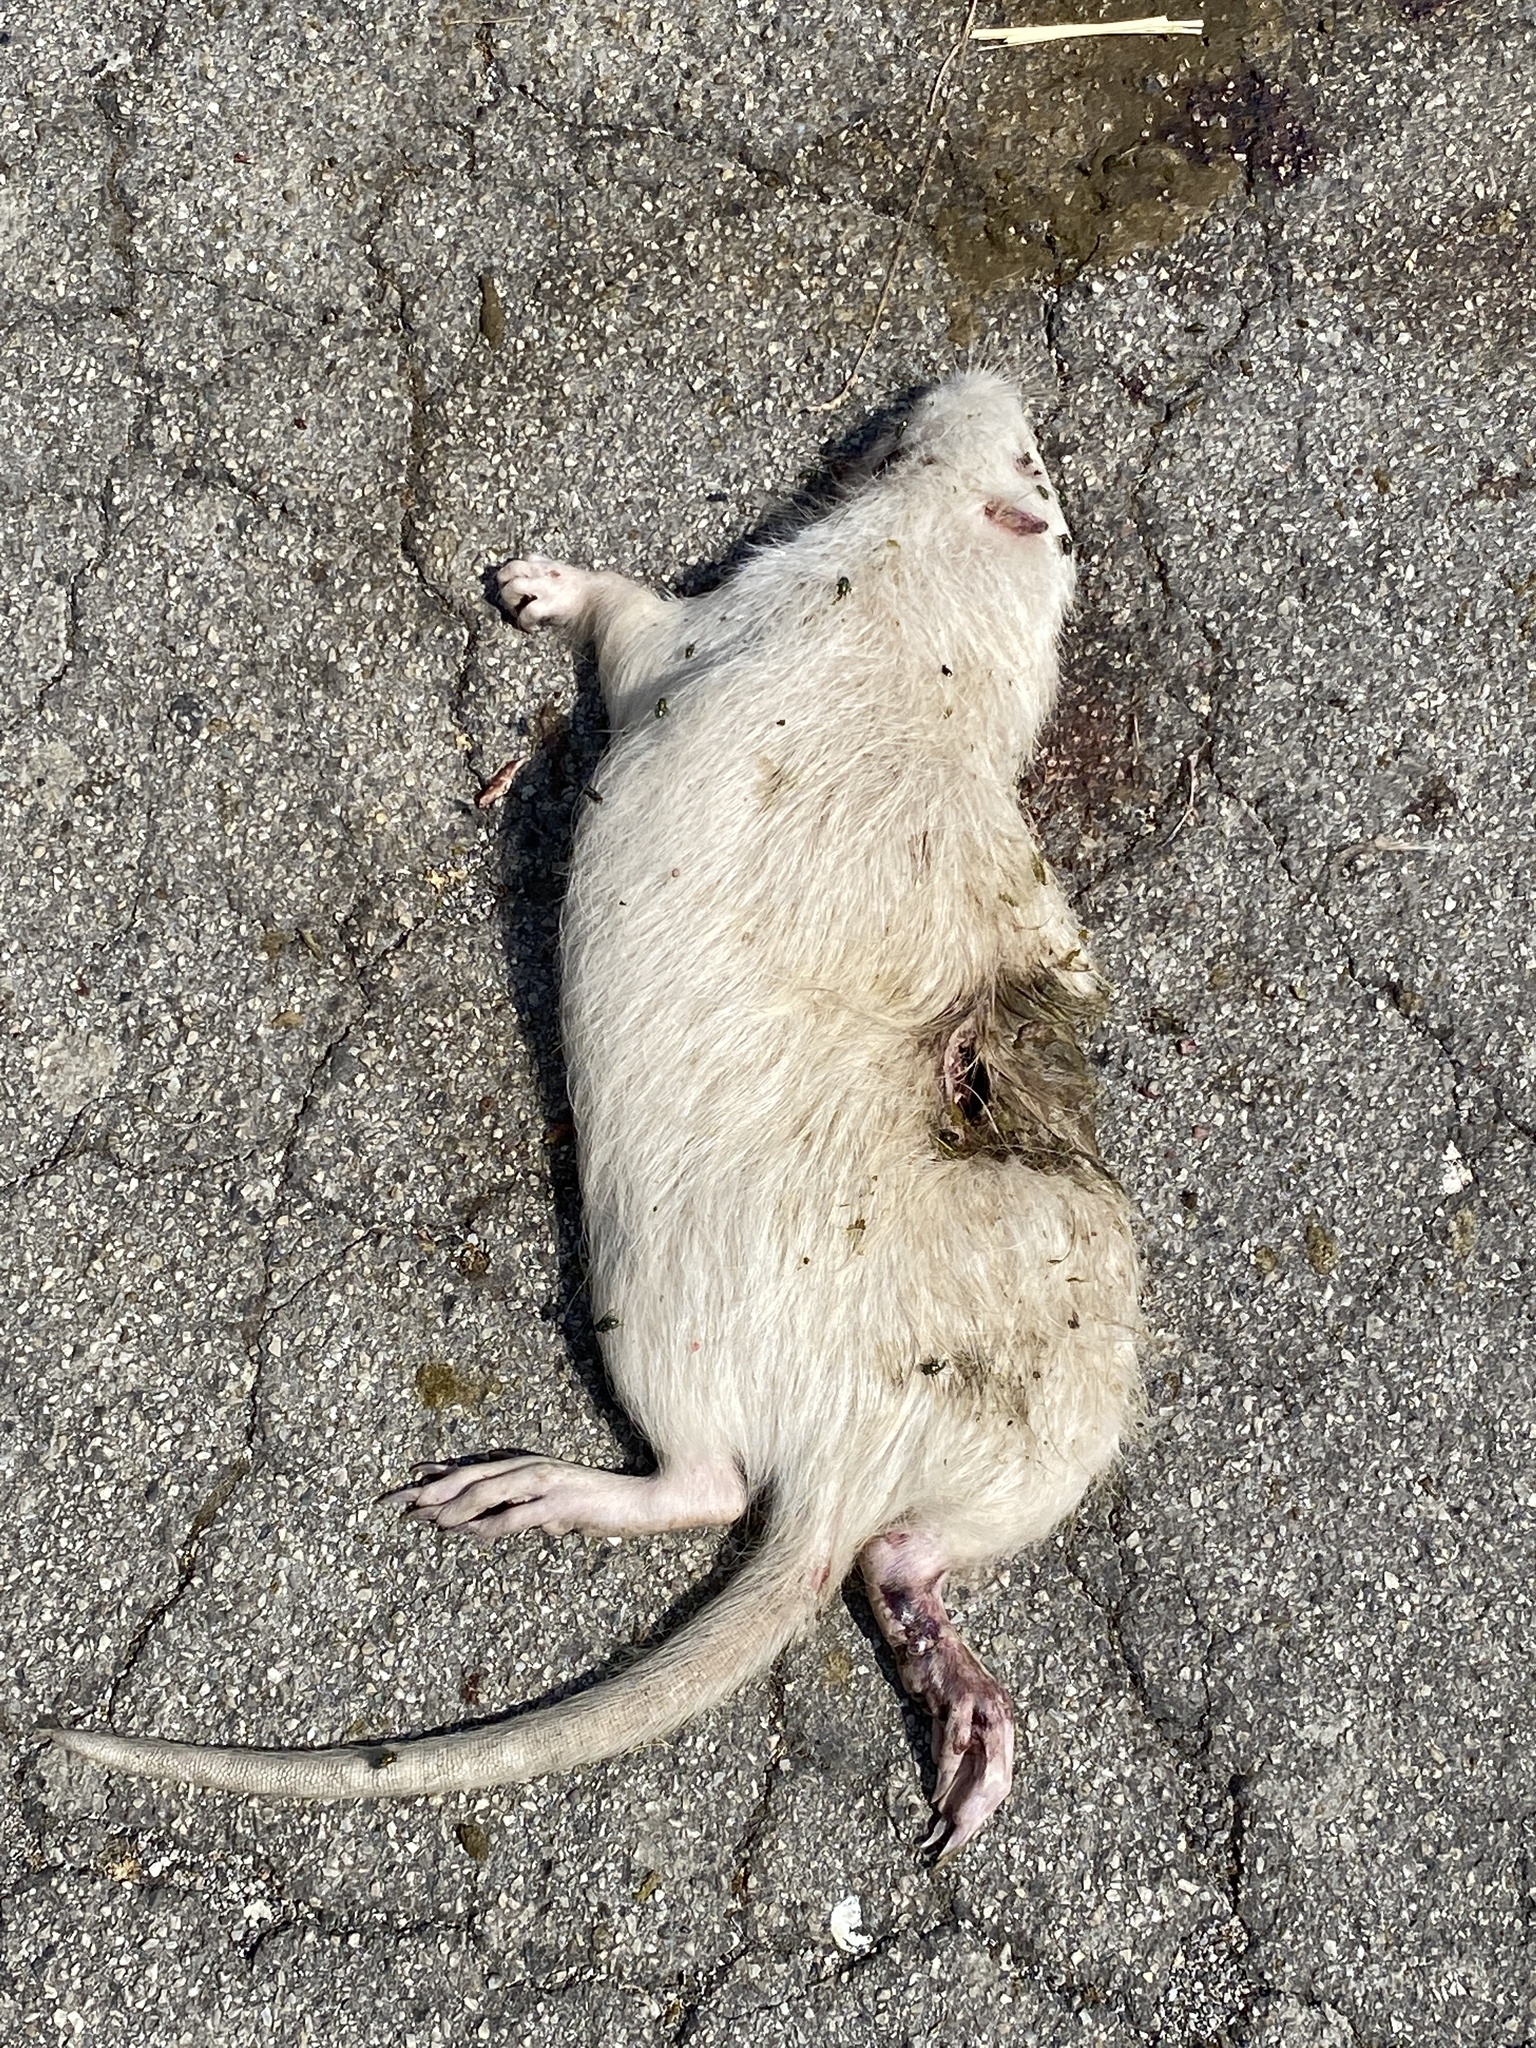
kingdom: Animalia
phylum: Chordata
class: Mammalia
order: Rodentia
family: Myocastoridae
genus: Myocastor
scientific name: Myocastor coypus
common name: Coypu
